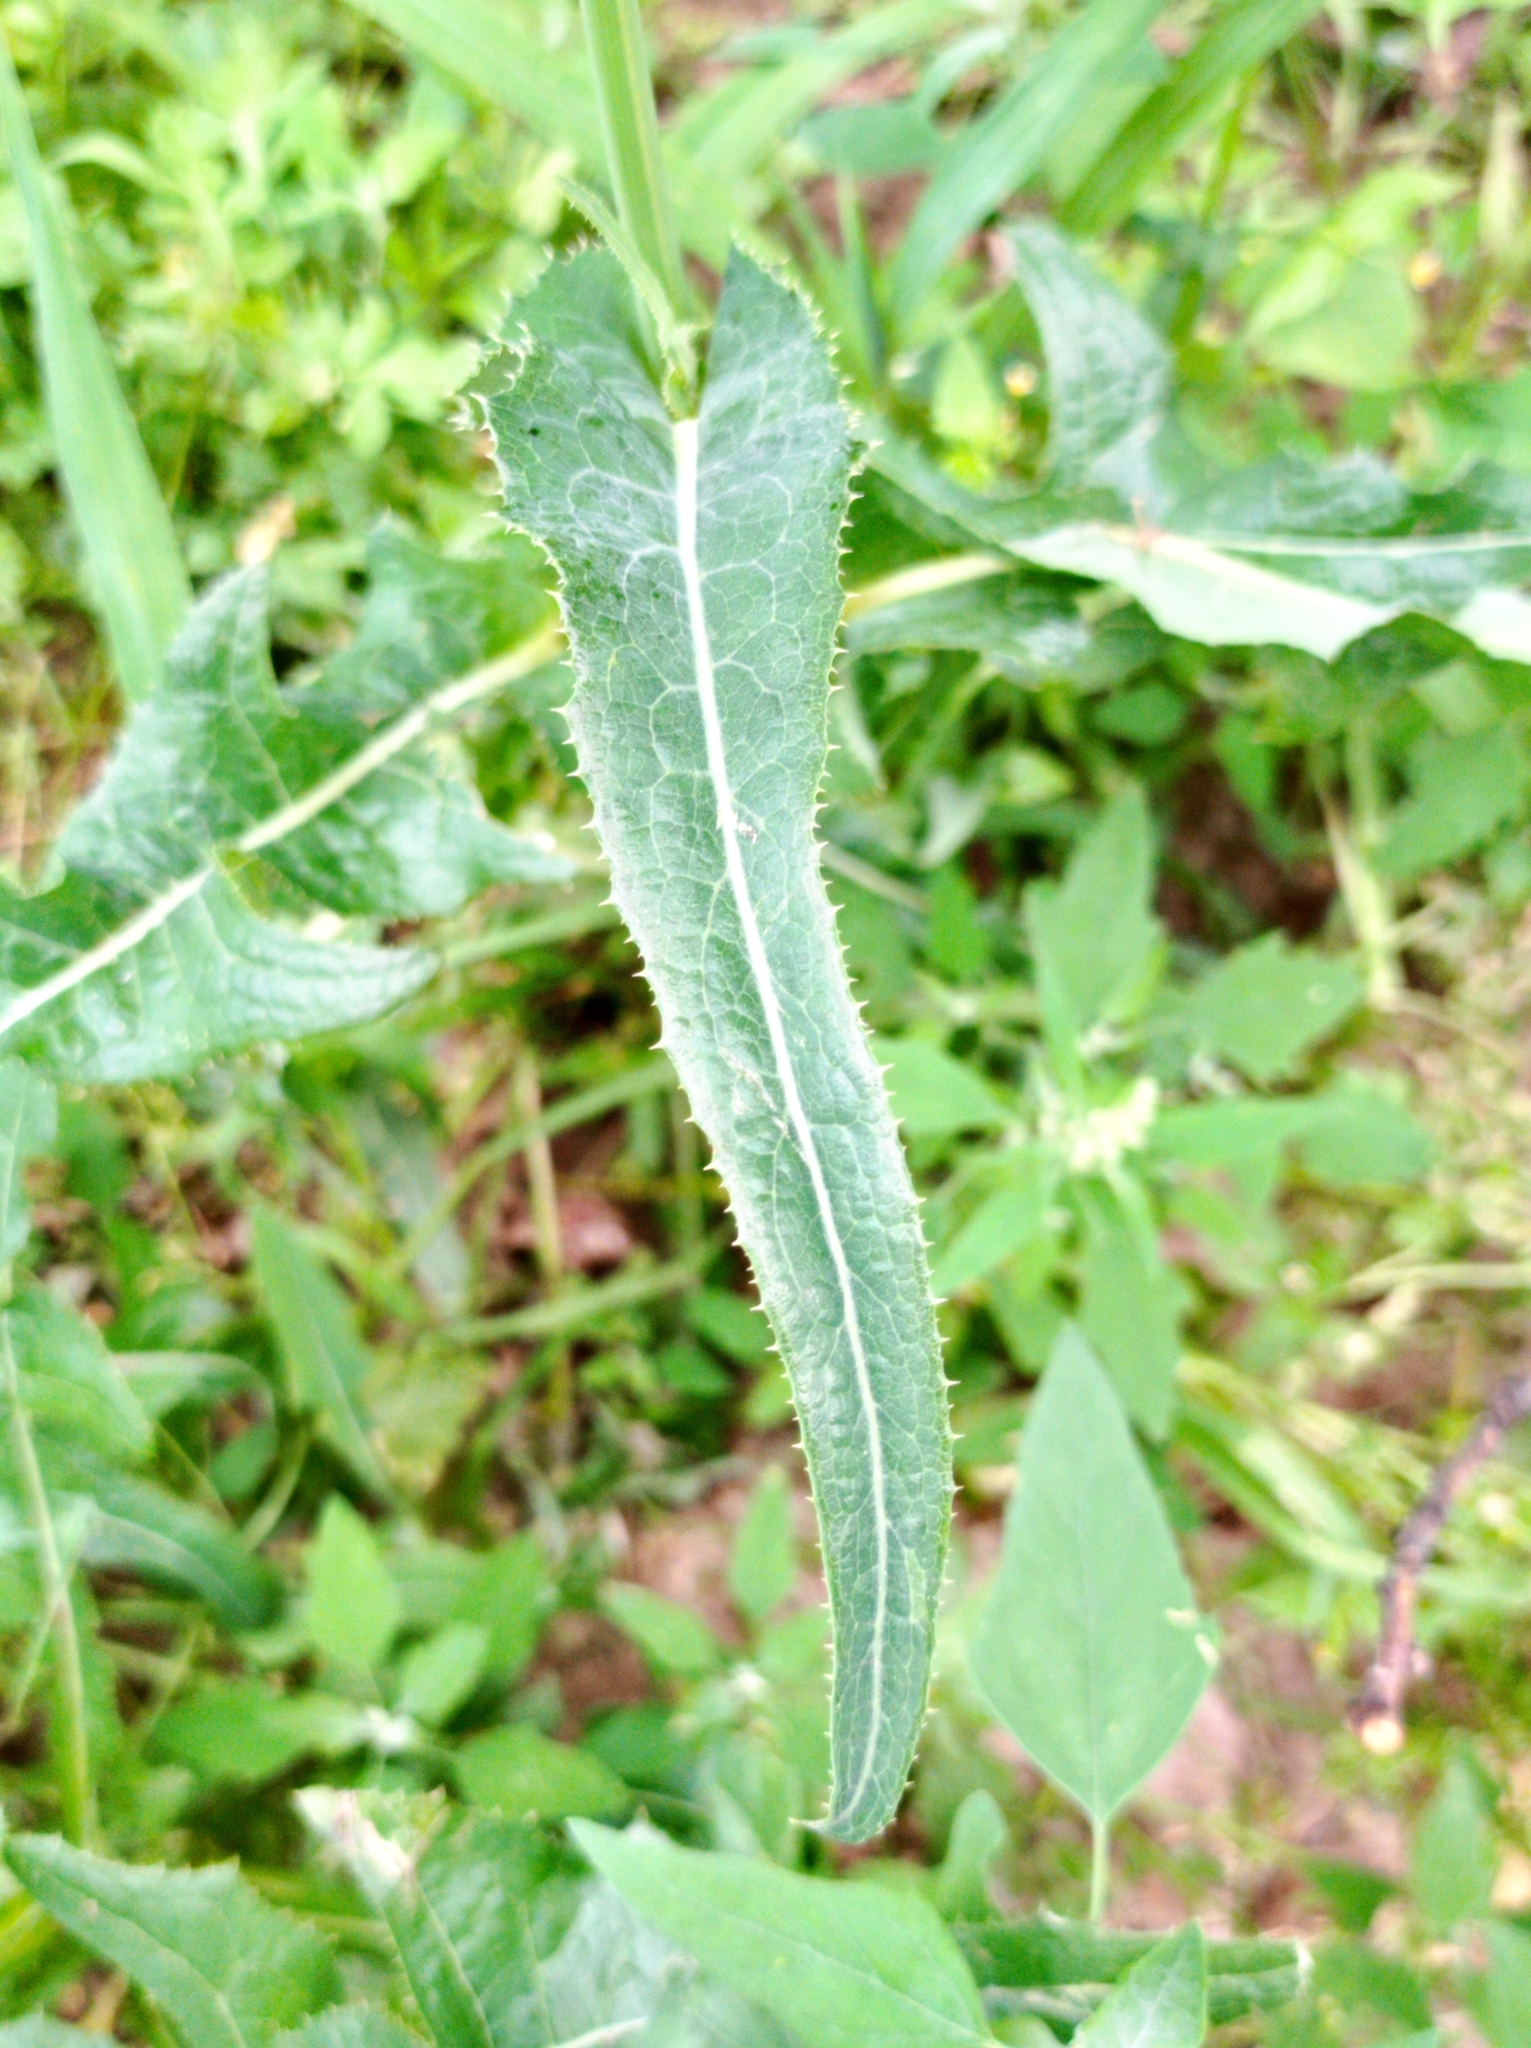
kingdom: Plantae
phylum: Tracheophyta
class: Magnoliopsida
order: Asterales
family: Asteraceae
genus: Sonchus
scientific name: Sonchus arvensis
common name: Perennial sow-thistle
